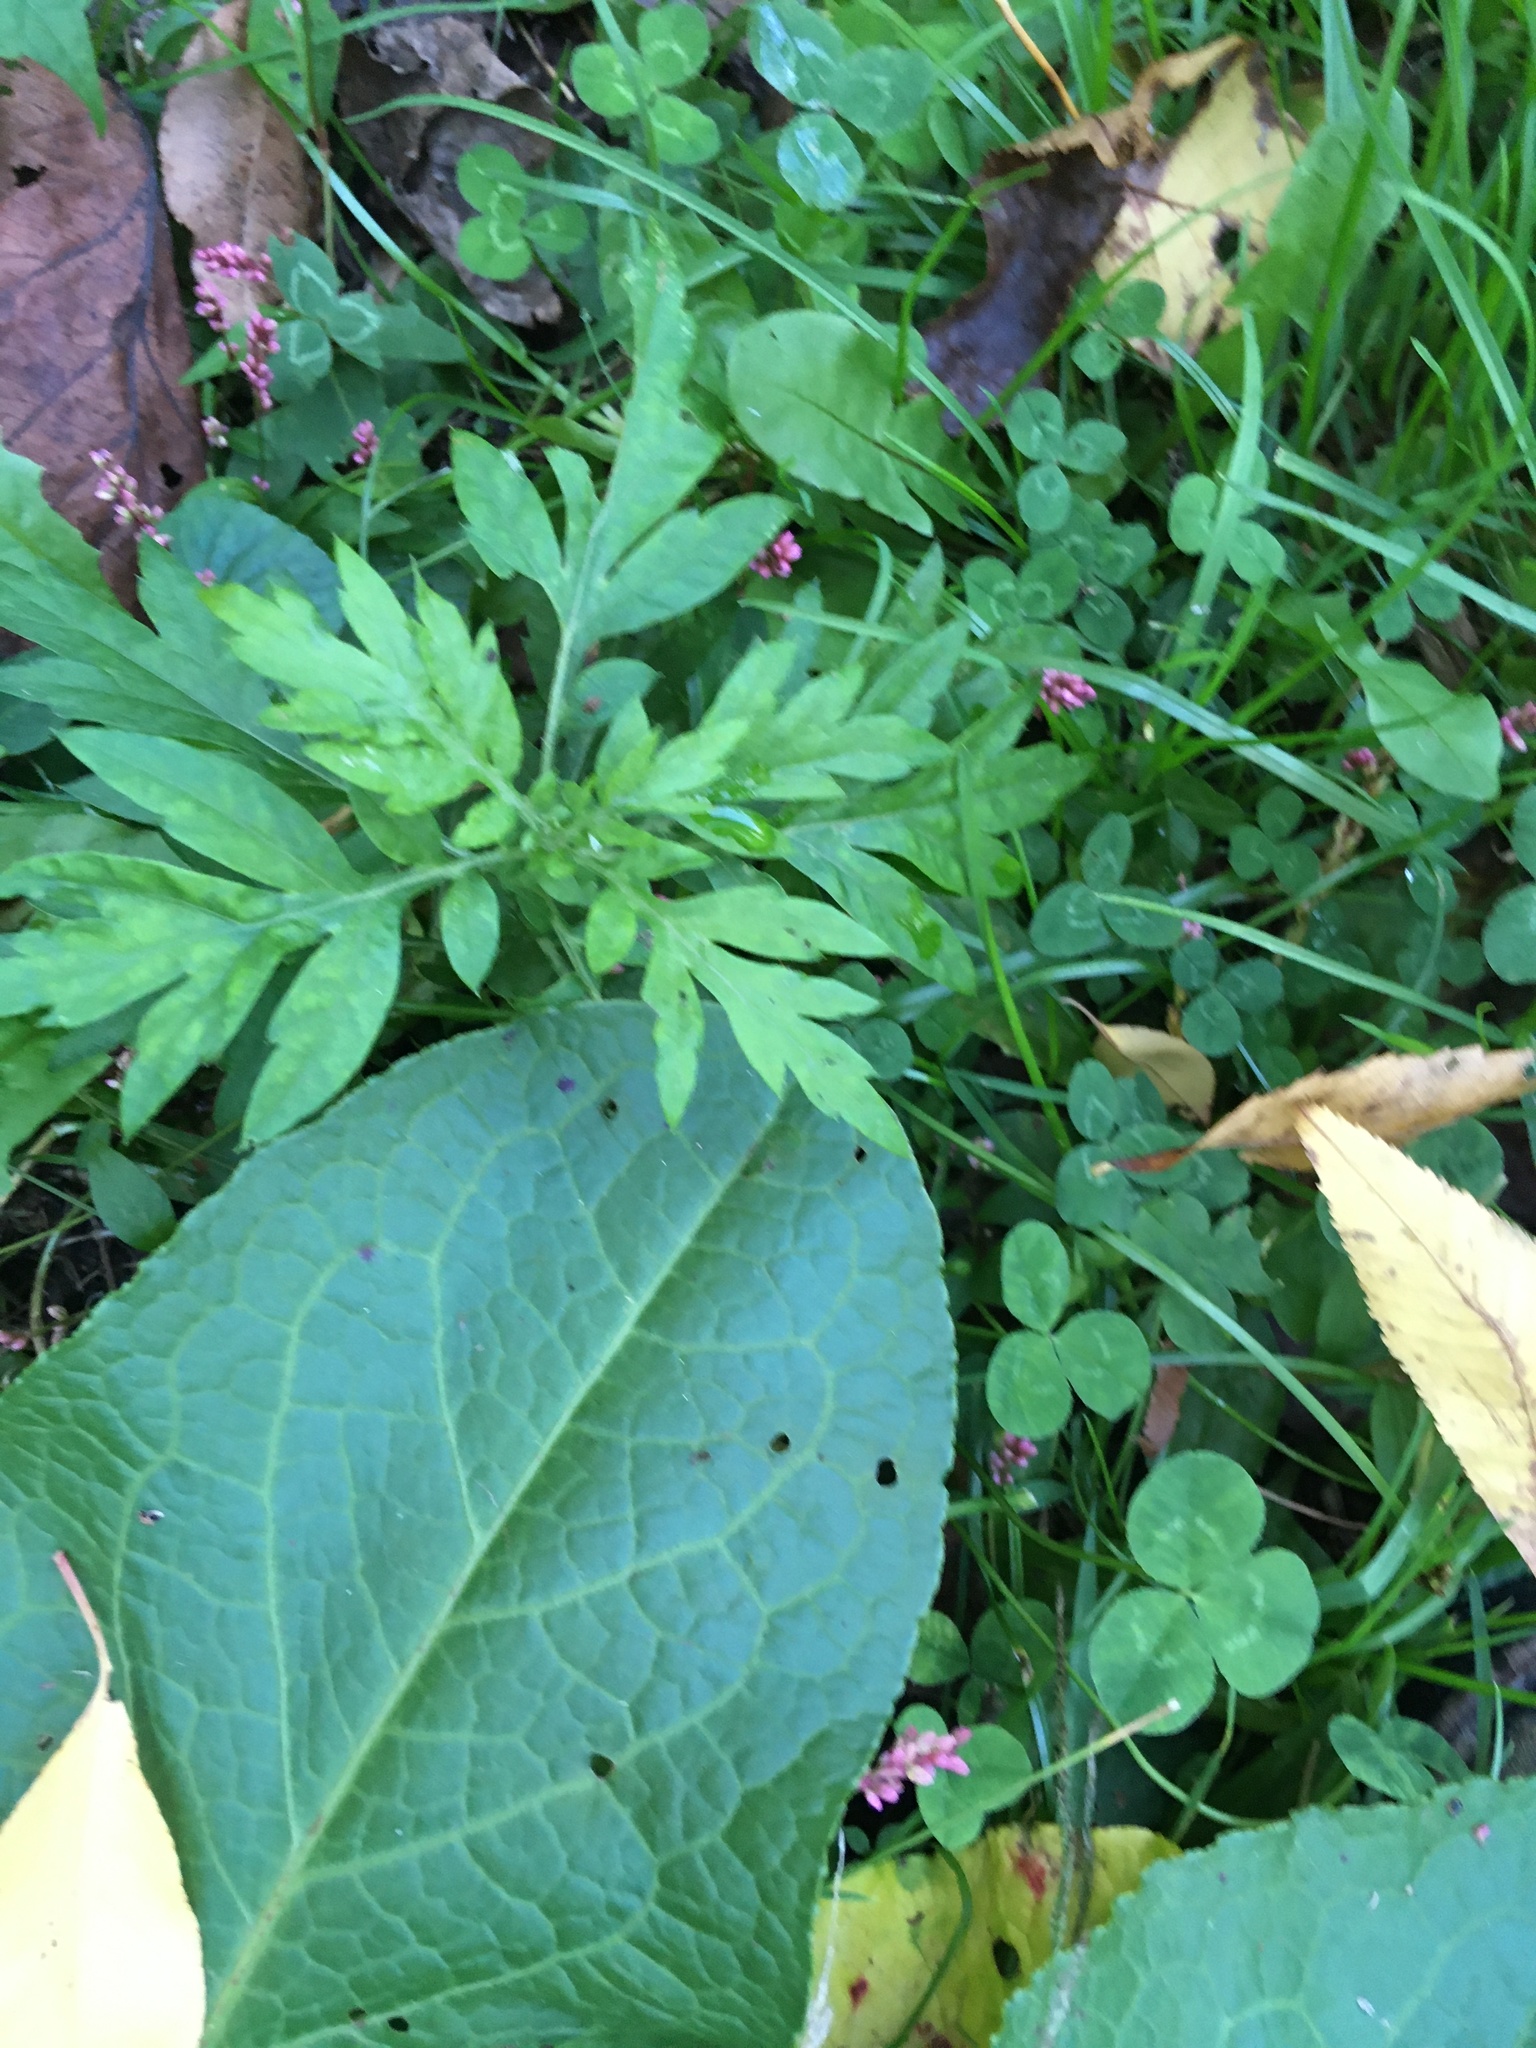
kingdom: Plantae
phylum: Tracheophyta
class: Magnoliopsida
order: Asterales
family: Asteraceae
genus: Artemisia
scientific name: Artemisia vulgaris
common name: Mugwort
